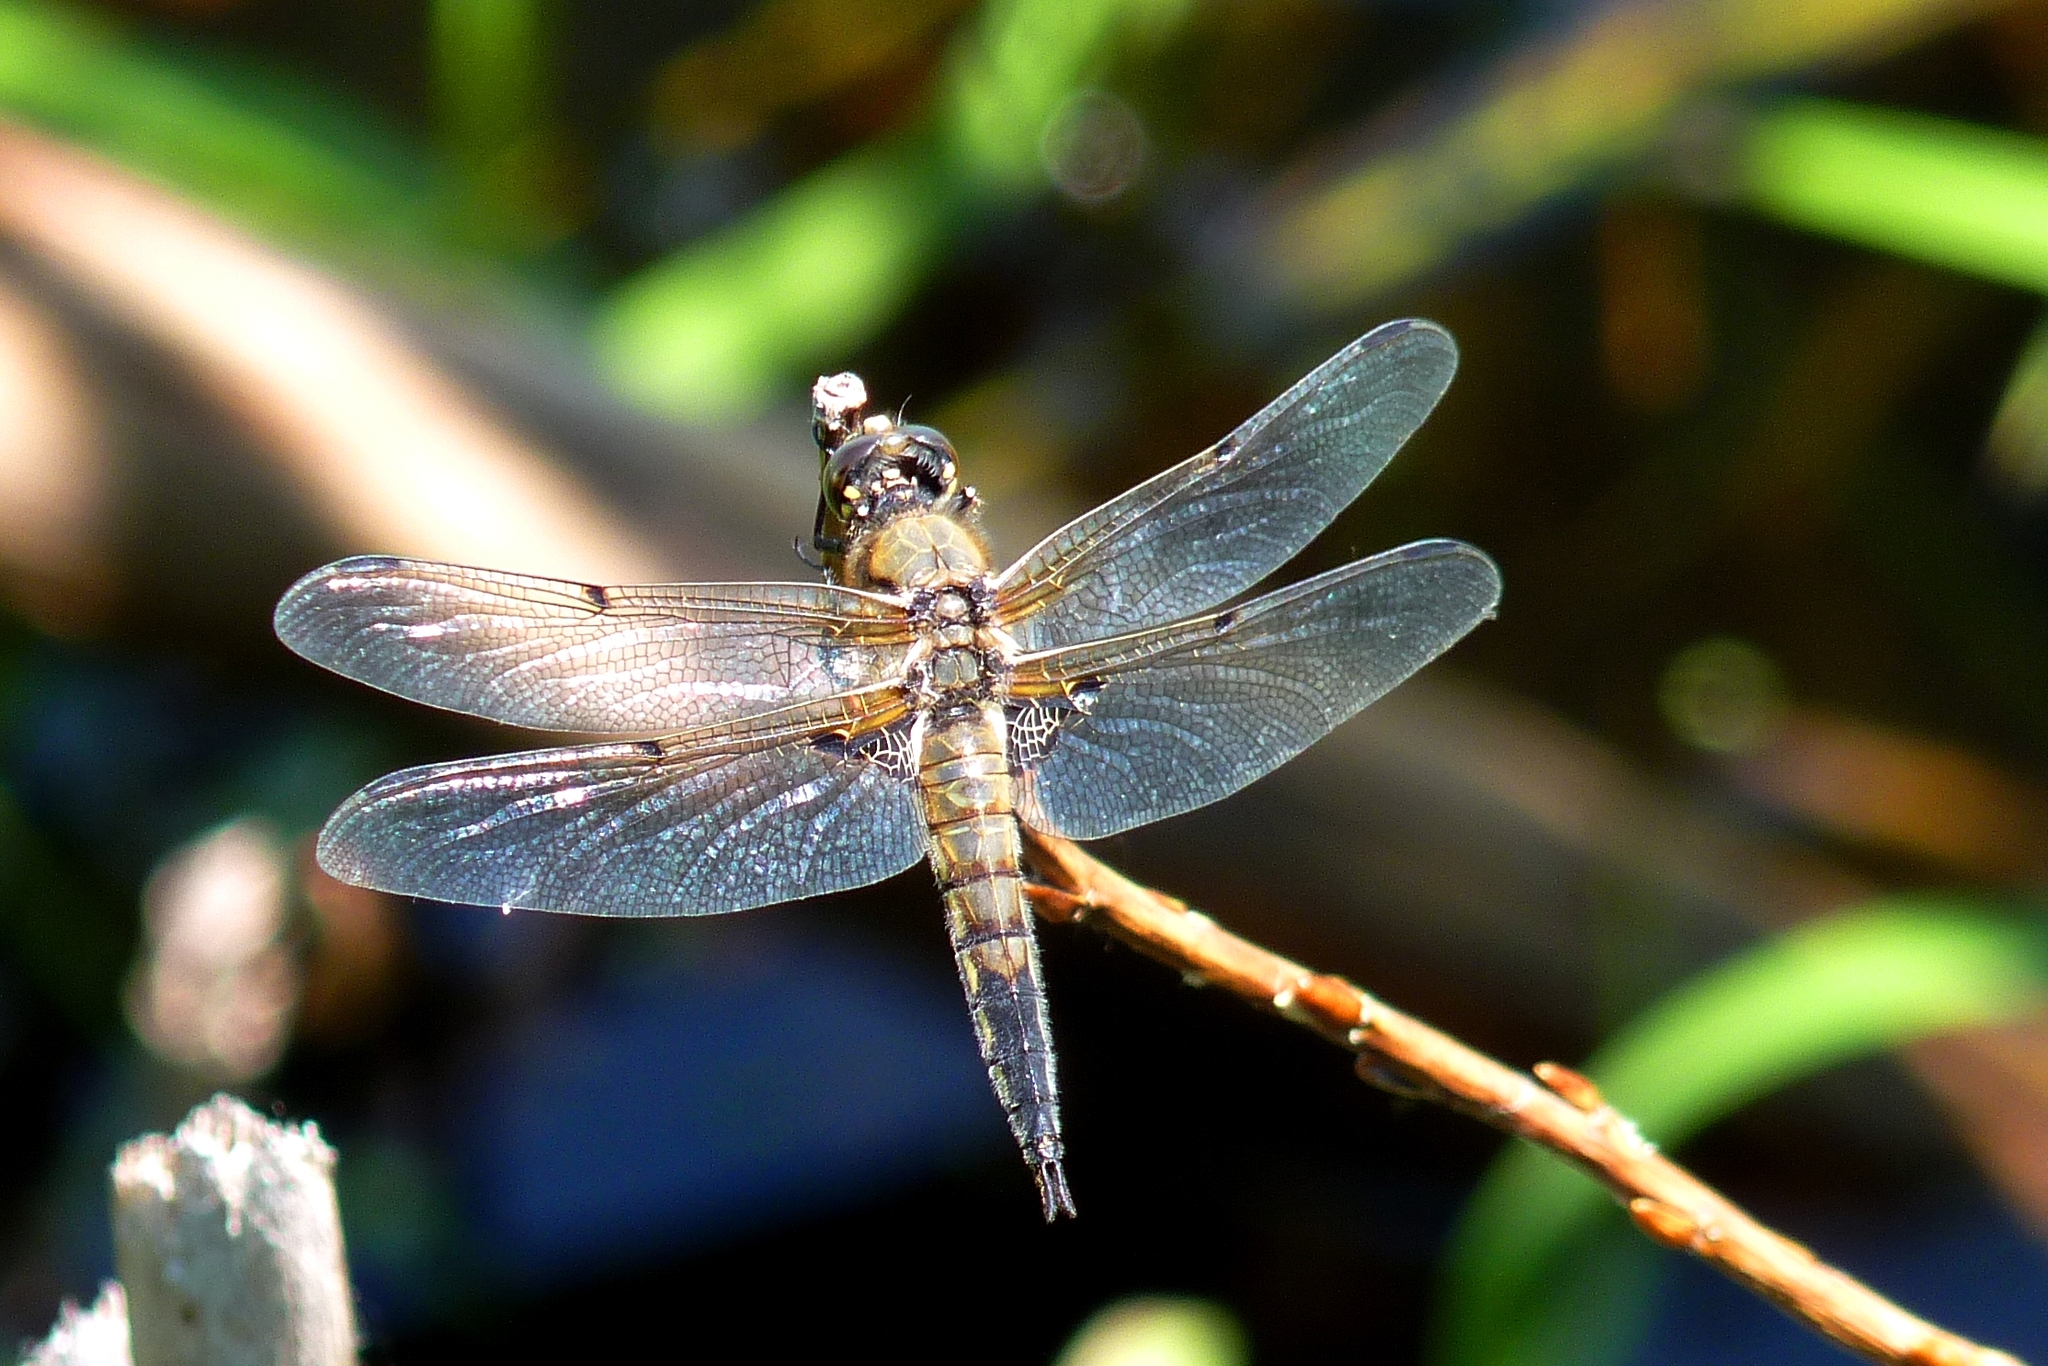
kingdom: Animalia
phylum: Arthropoda
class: Insecta
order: Odonata
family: Libellulidae
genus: Libellula
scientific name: Libellula quadrimaculata
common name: Four-spotted chaser
